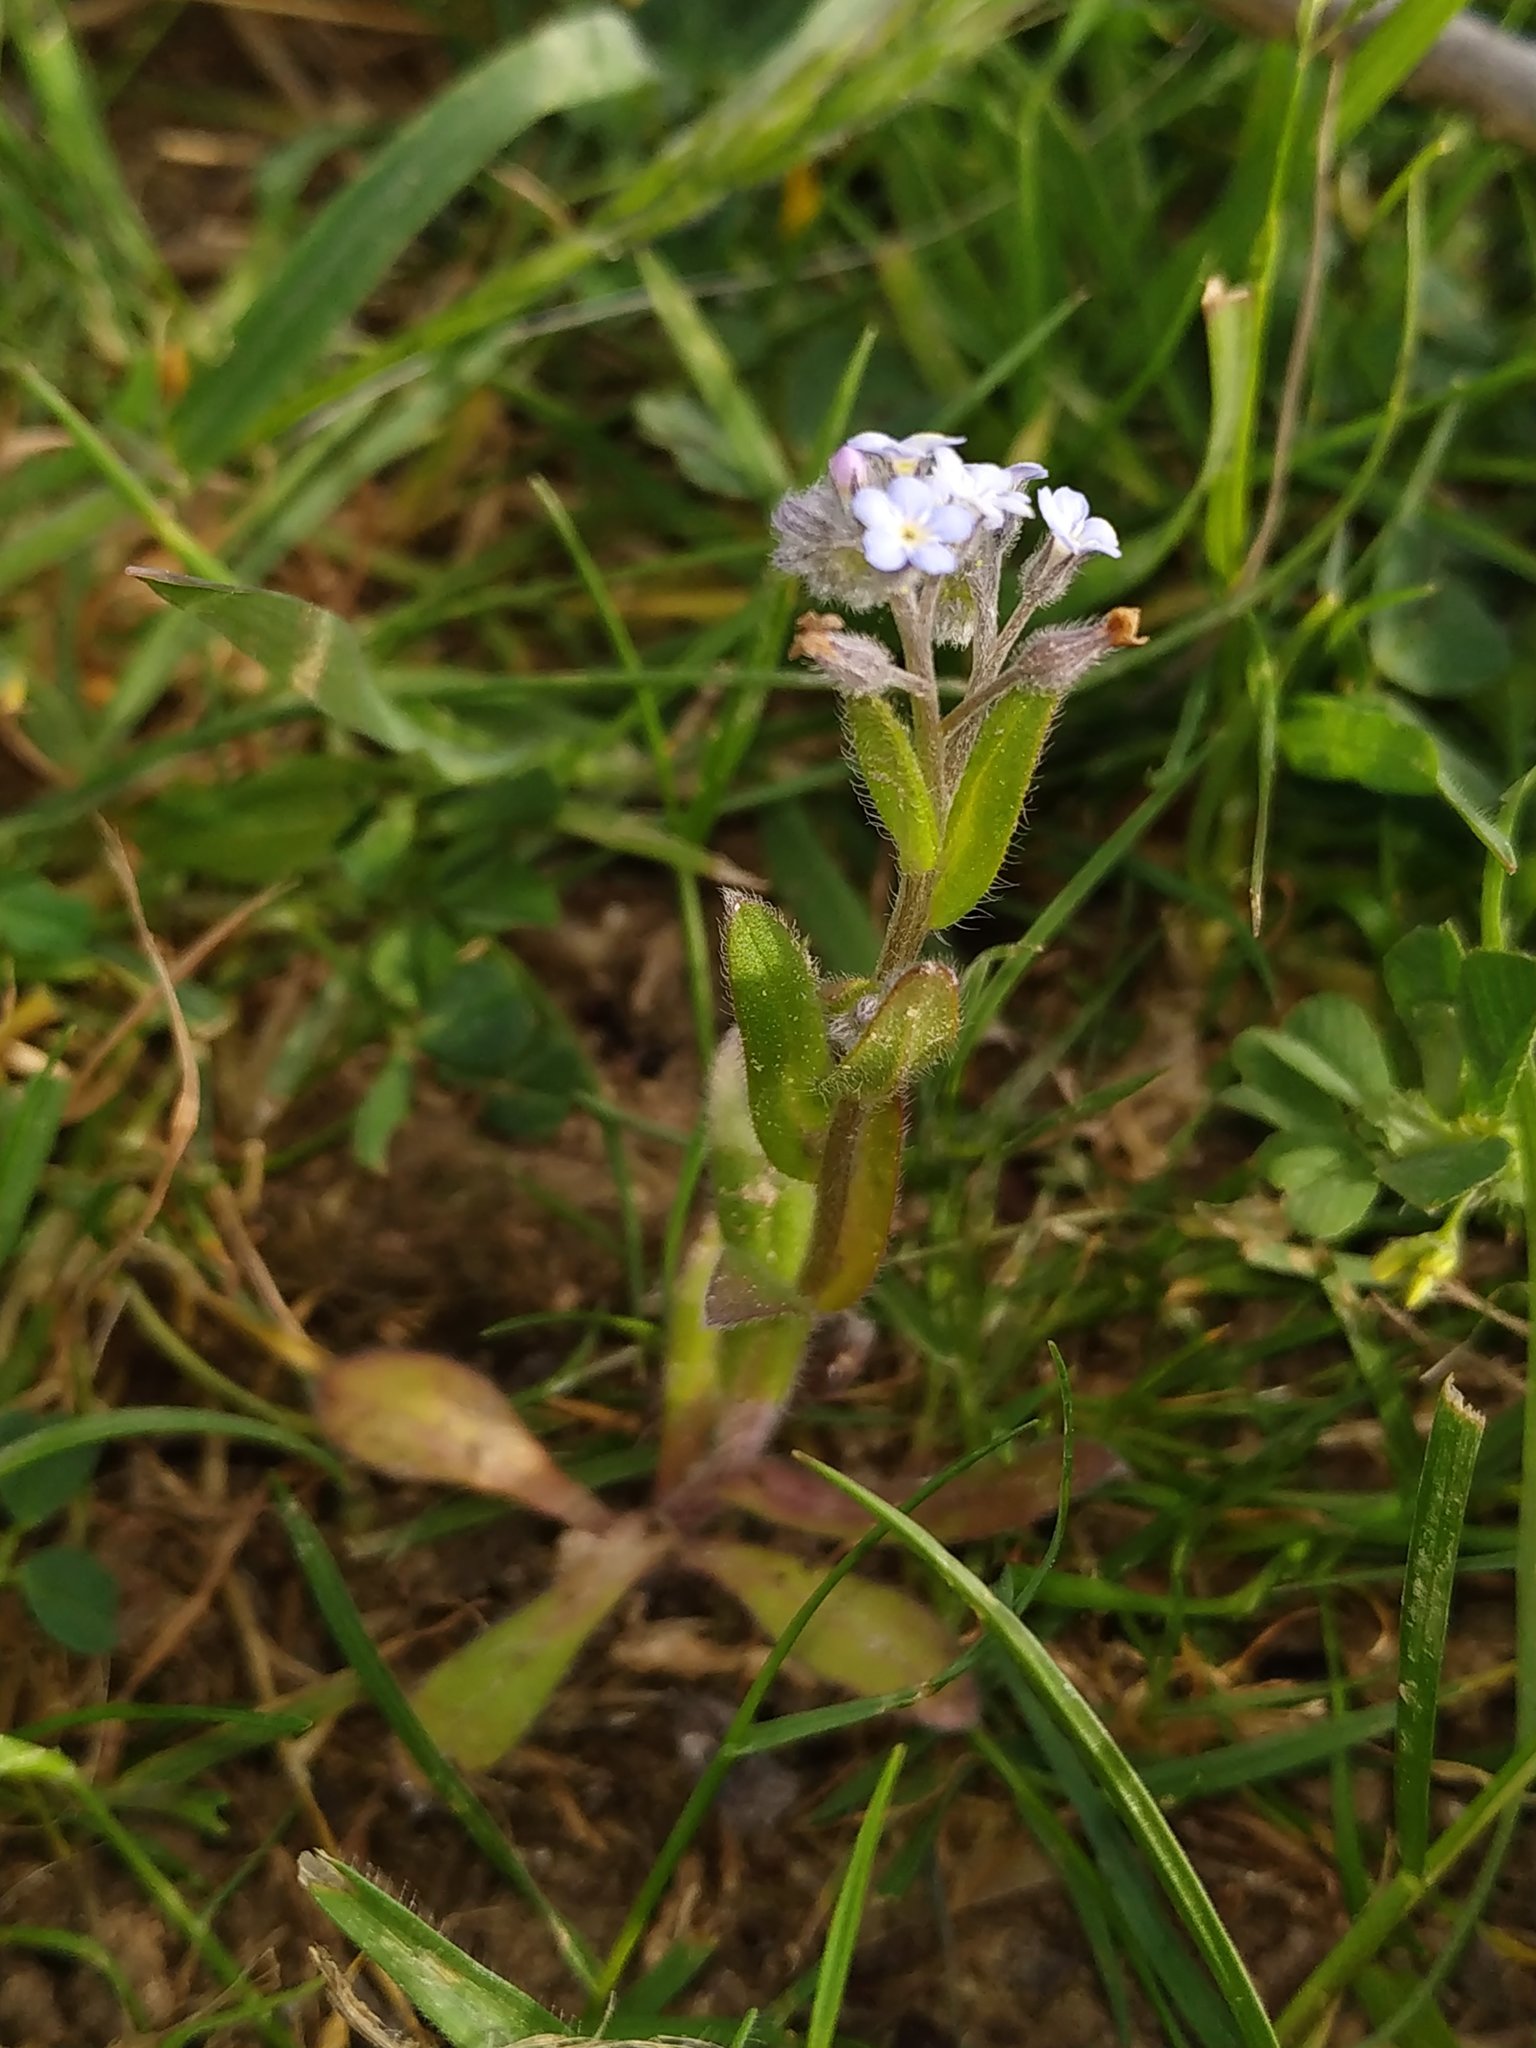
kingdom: Plantae
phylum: Tracheophyta
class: Magnoliopsida
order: Boraginales
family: Boraginaceae
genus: Myosotis
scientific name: Myosotis arvensis
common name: Field forget-me-not
